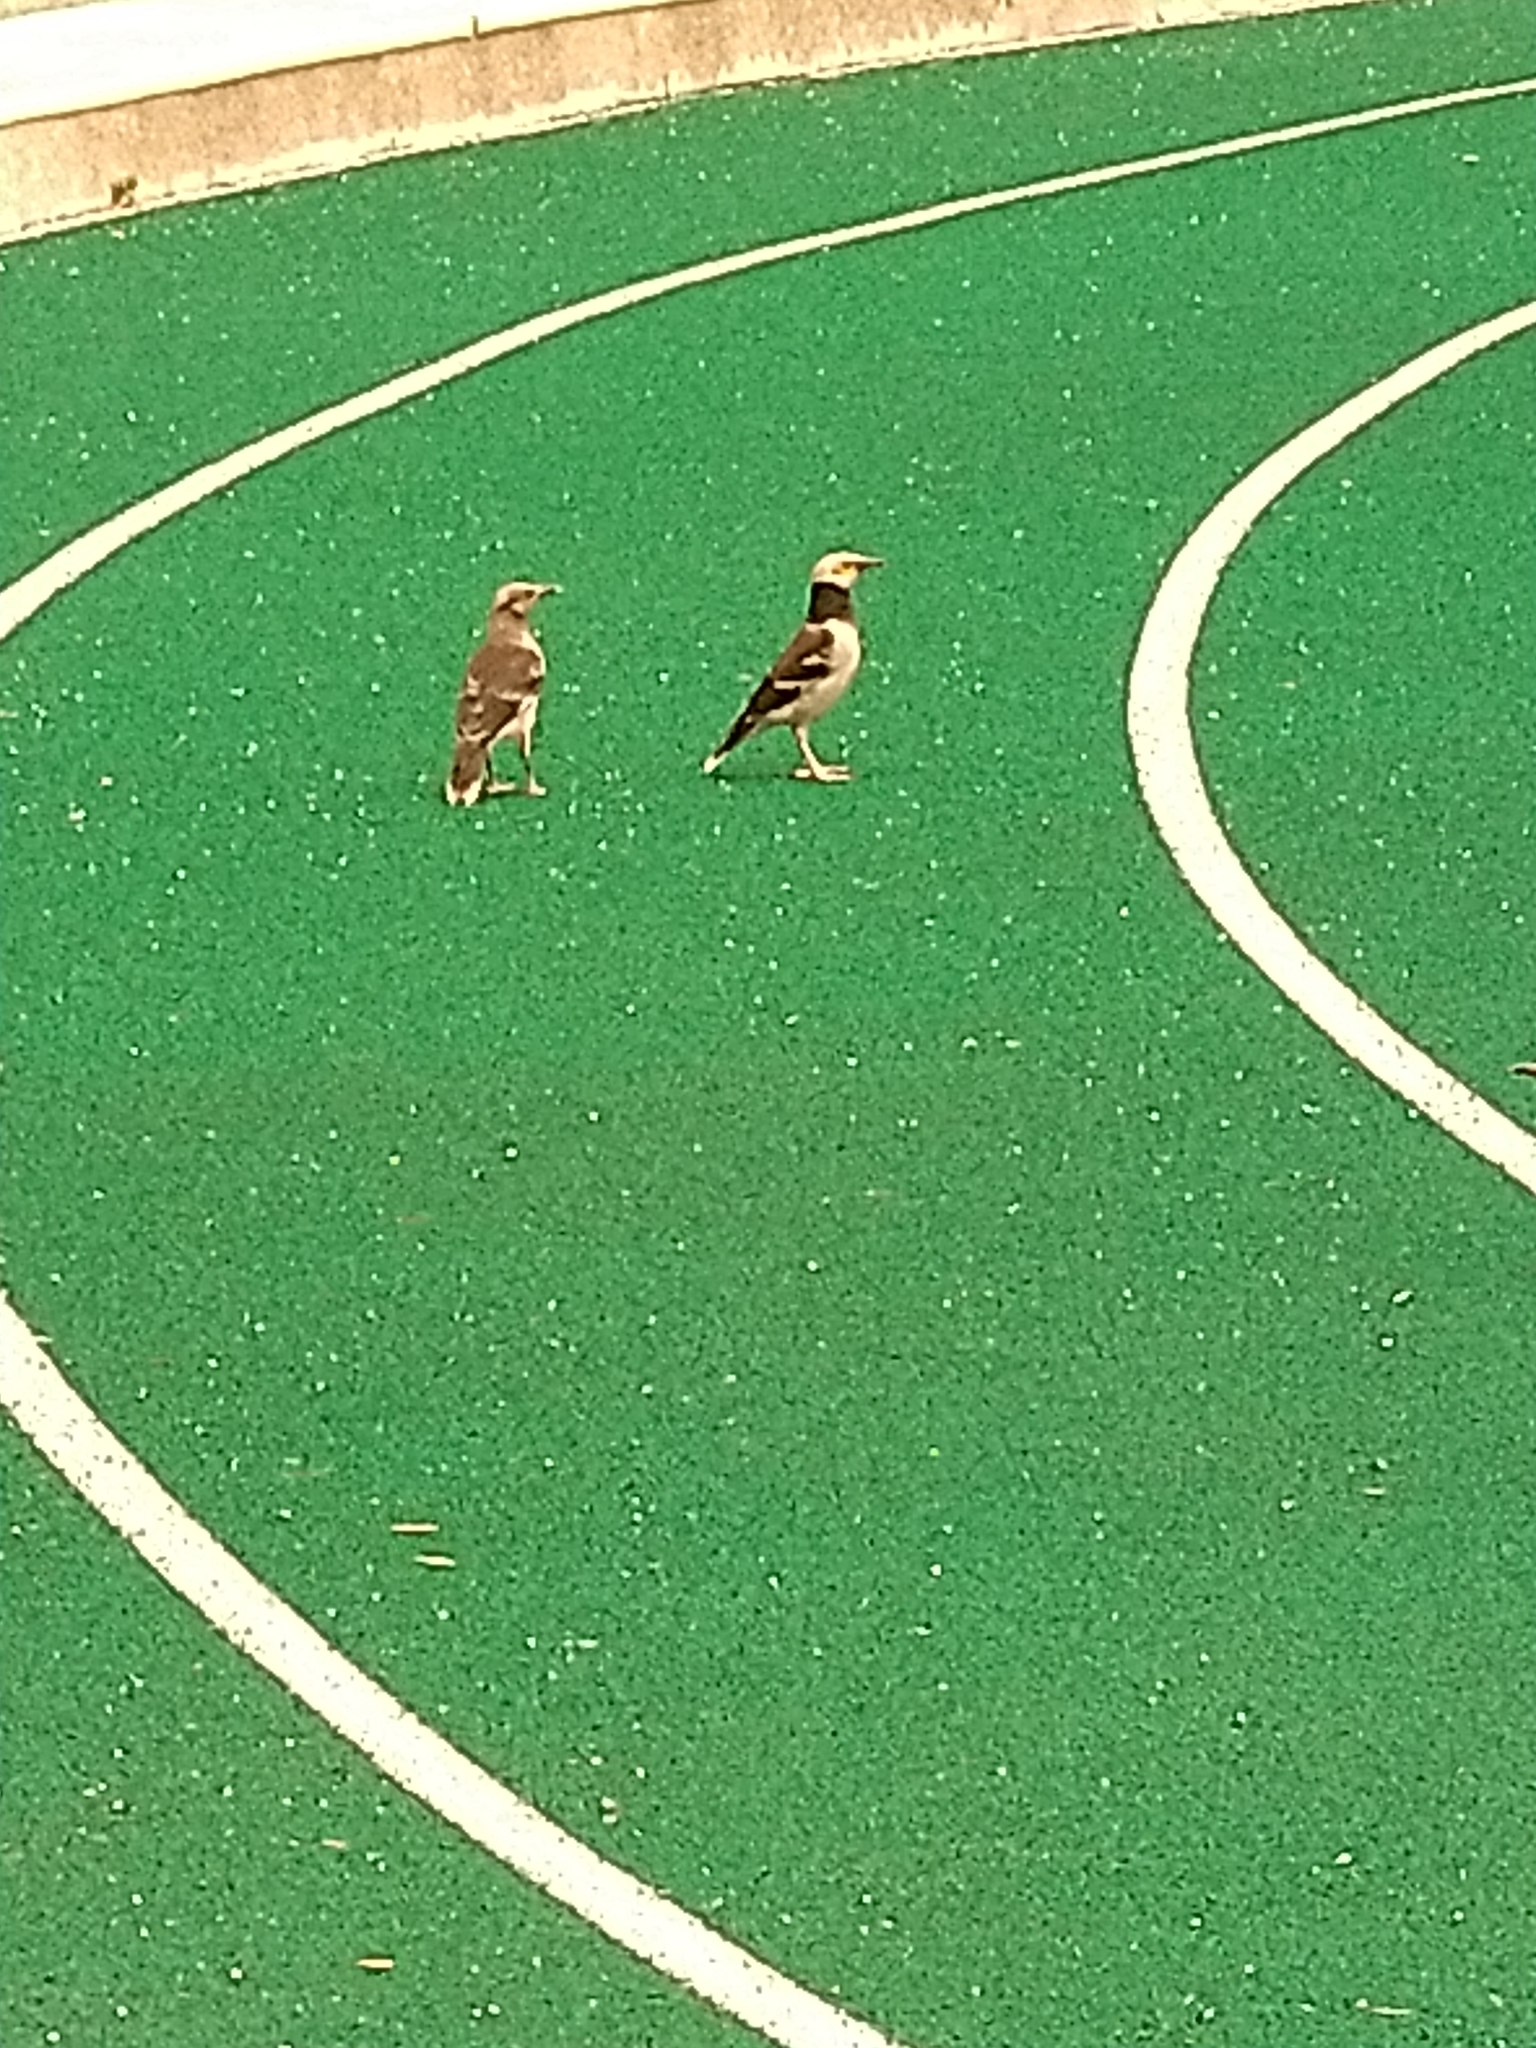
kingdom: Animalia
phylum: Chordata
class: Aves
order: Passeriformes
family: Sturnidae
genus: Gracupica
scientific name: Gracupica nigricollis
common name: Black-collared starling
